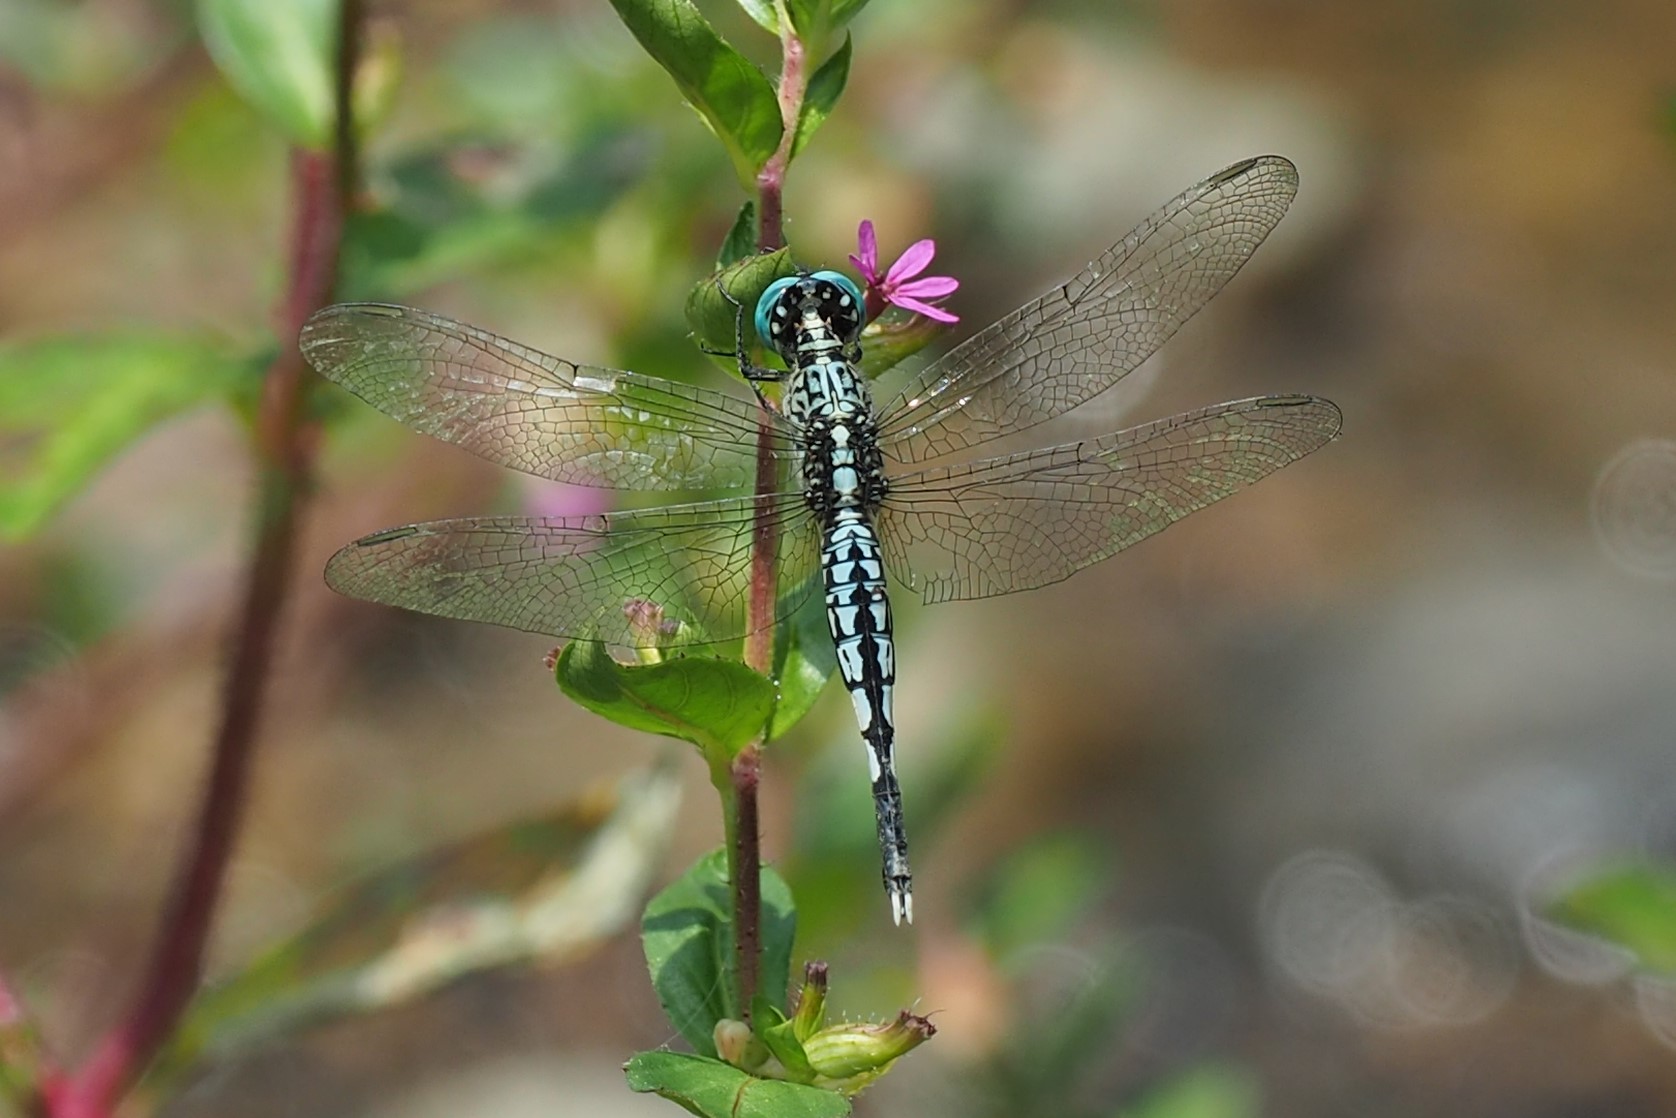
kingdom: Animalia
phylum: Arthropoda
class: Insecta
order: Odonata
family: Libellulidae
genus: Acisoma
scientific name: Acisoma panorpoides
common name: Asian pintail
